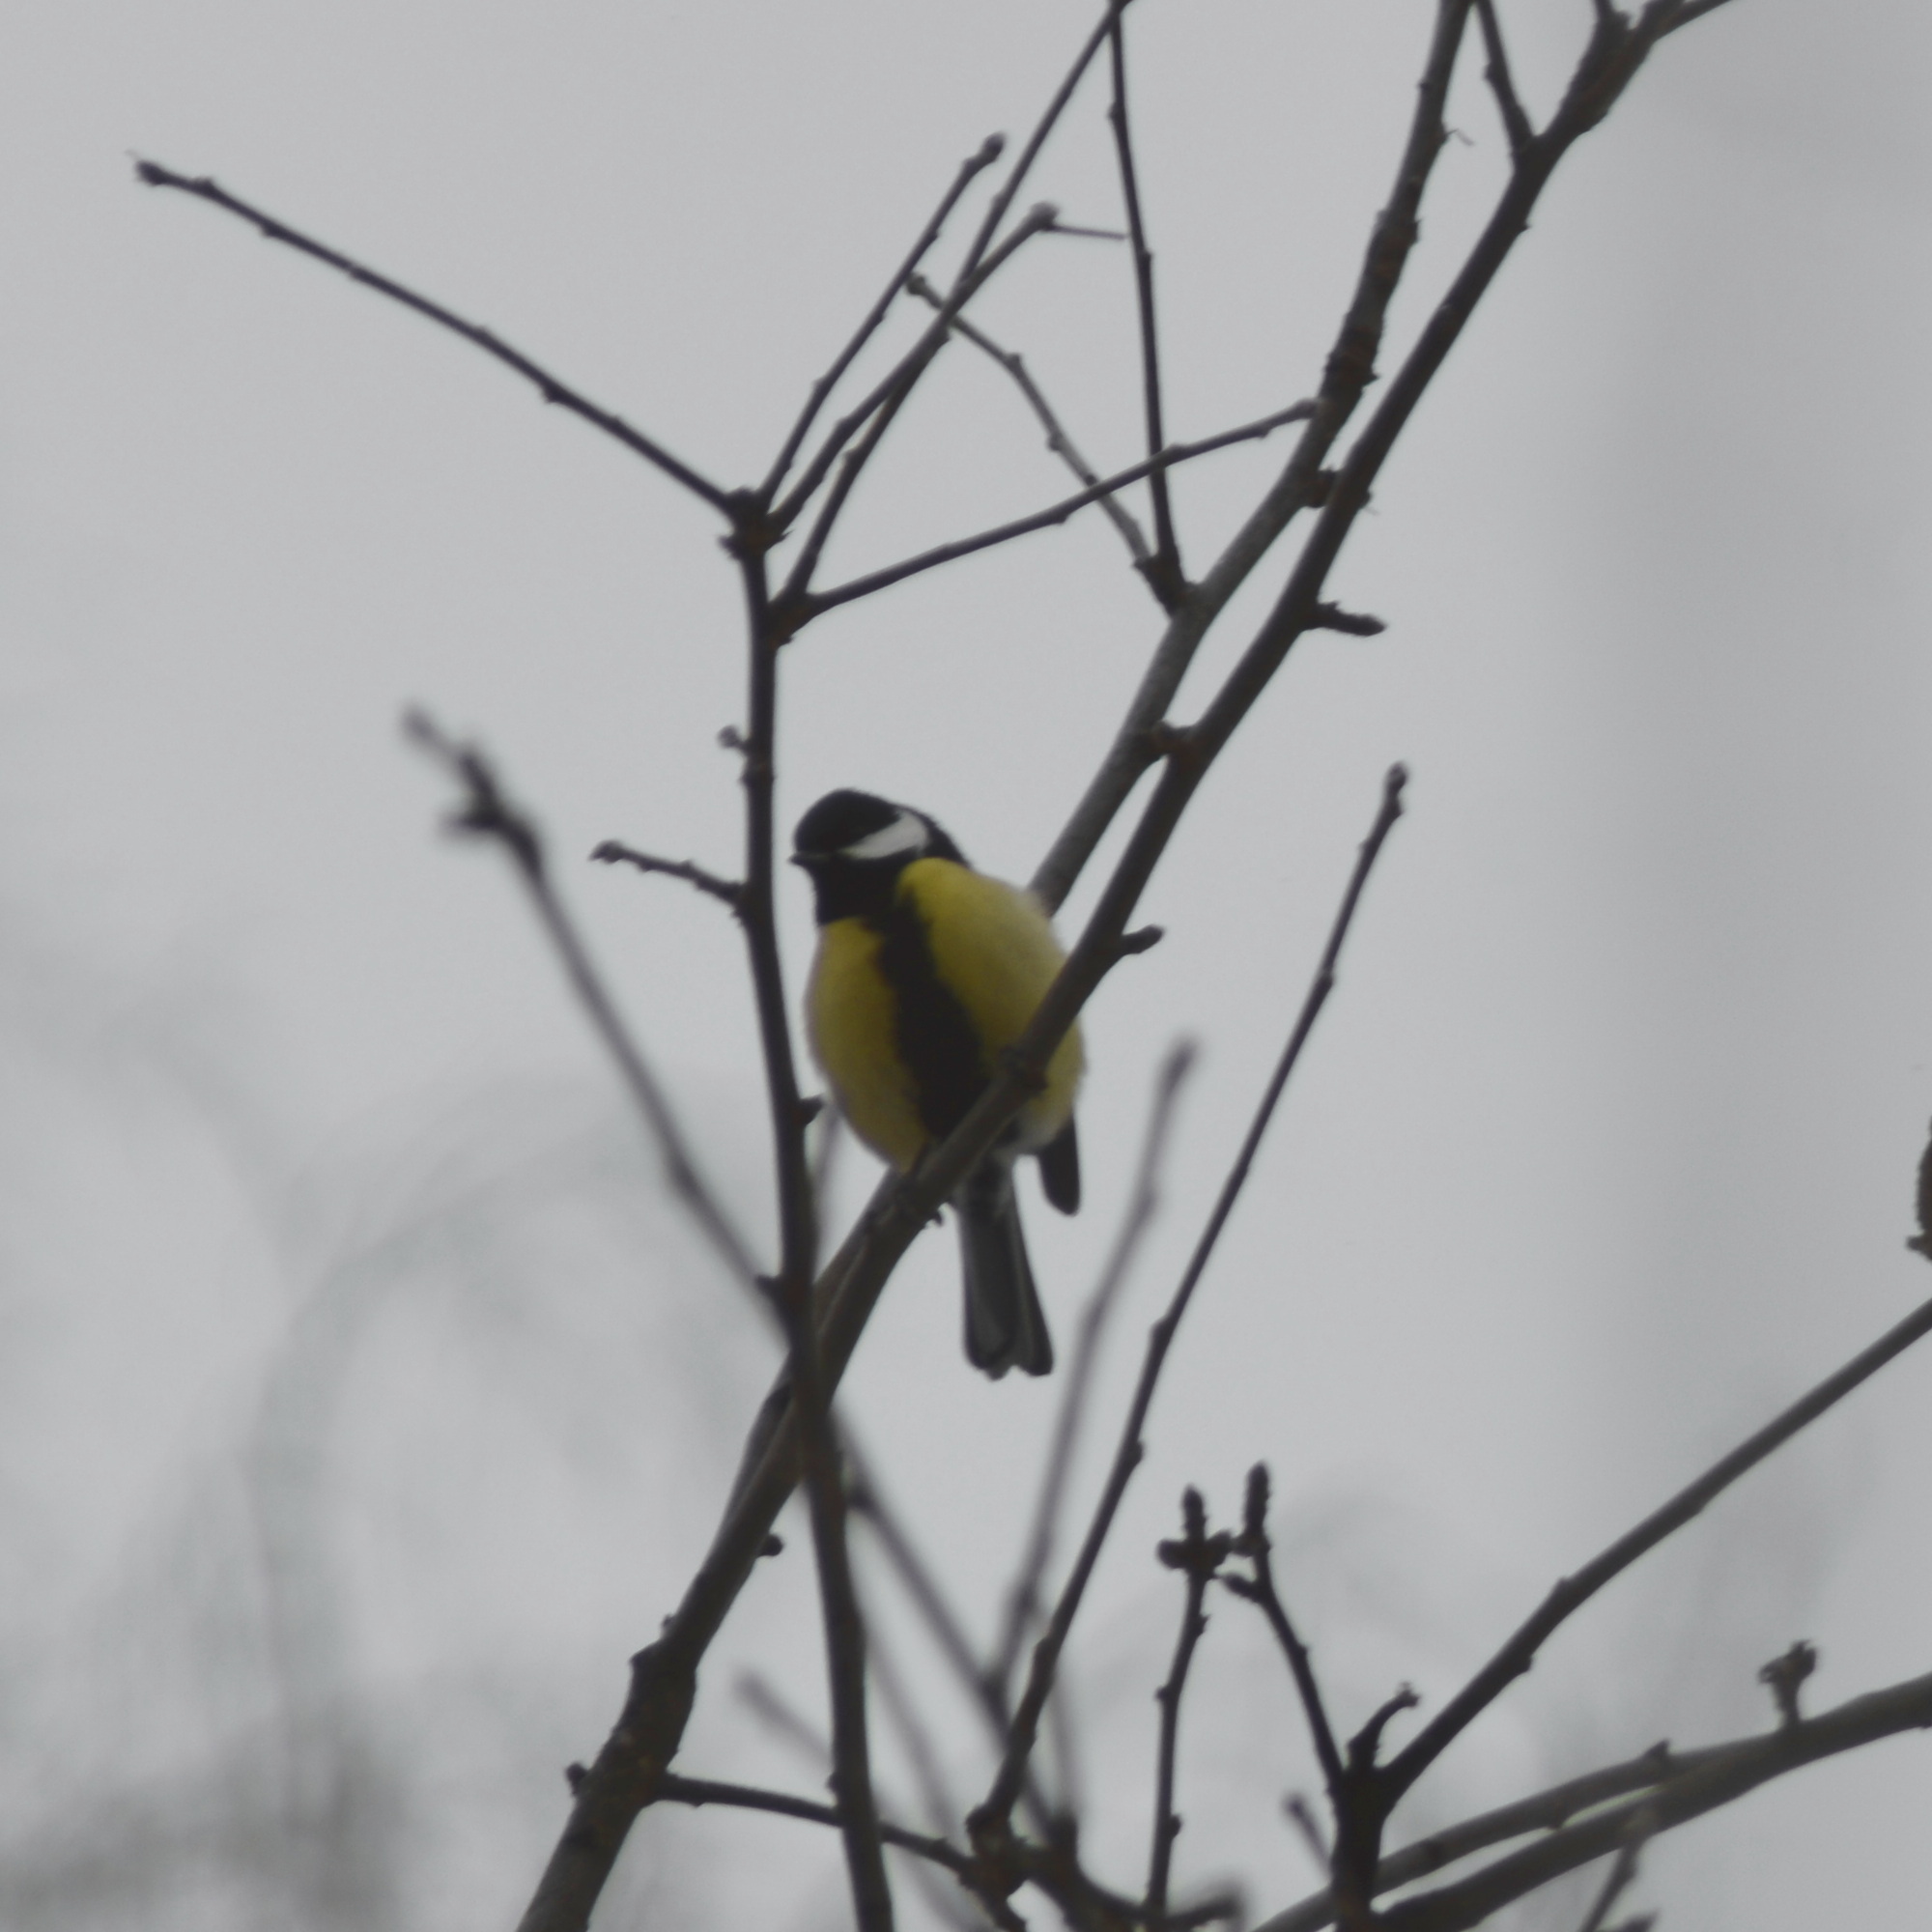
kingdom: Animalia
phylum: Chordata
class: Aves
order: Passeriformes
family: Paridae
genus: Parus
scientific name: Parus major
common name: Great tit
